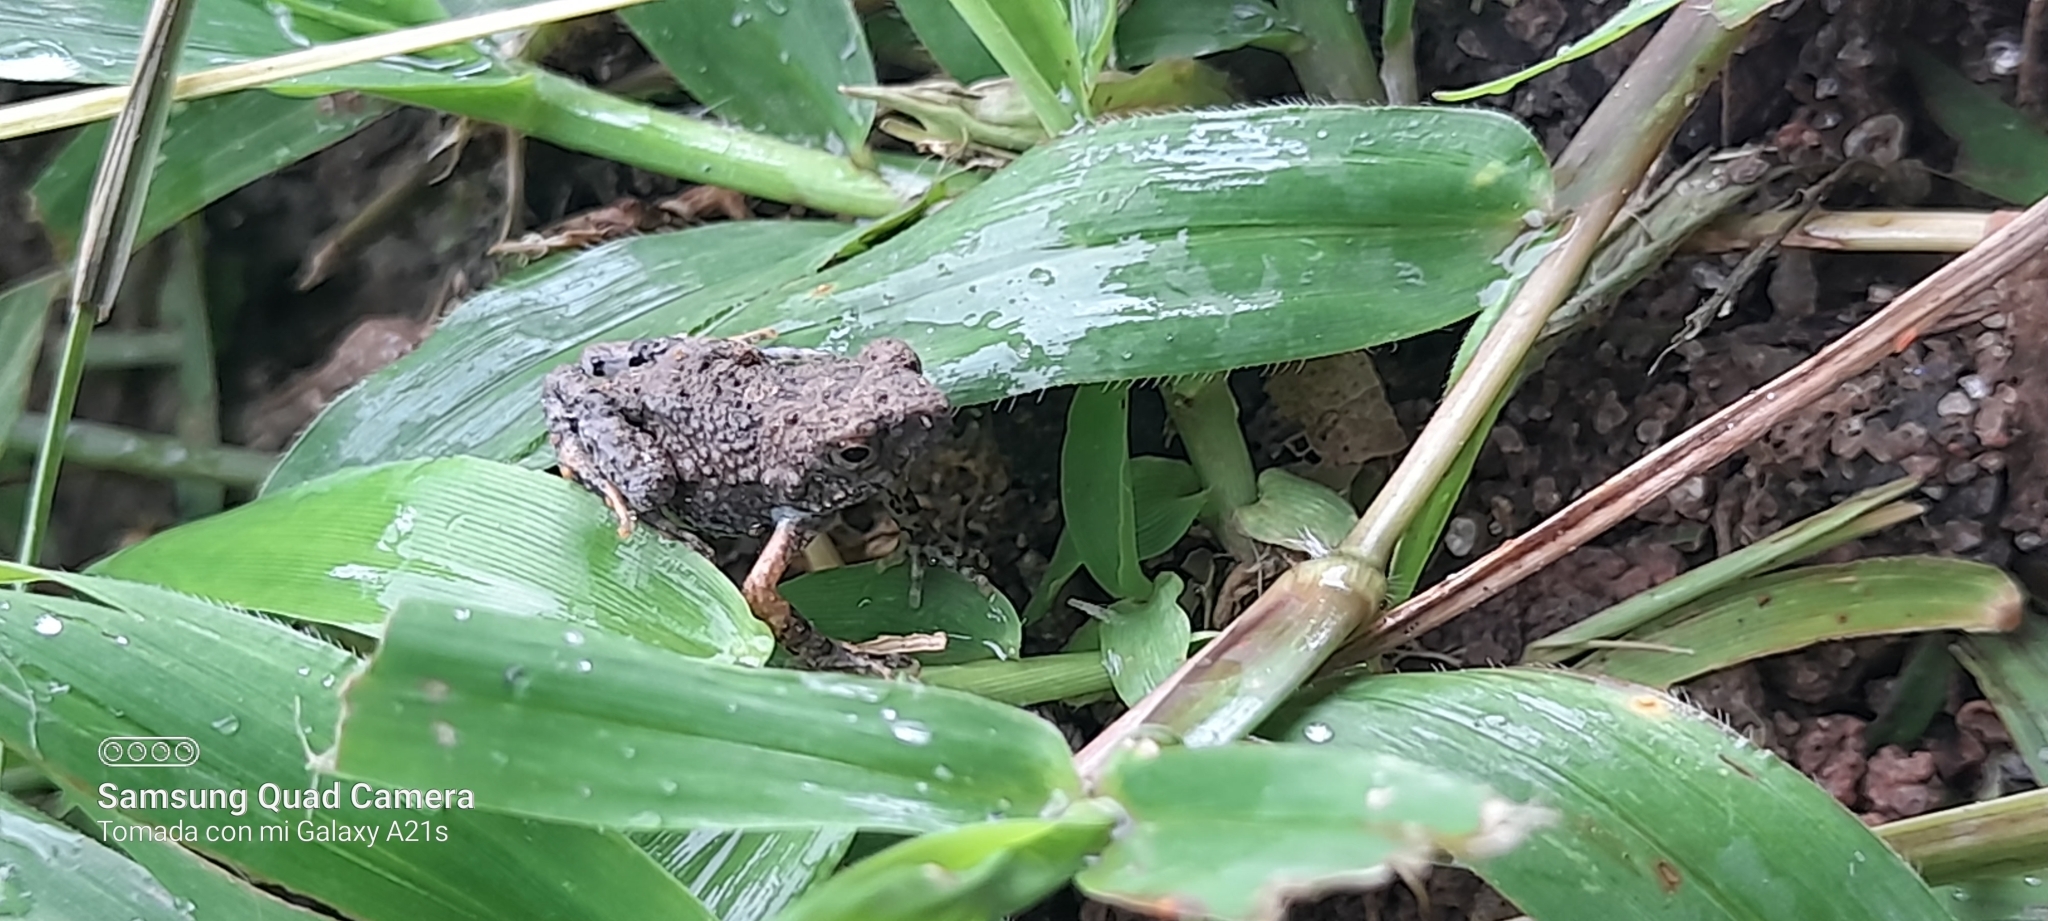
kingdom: Animalia
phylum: Chordata
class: Amphibia
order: Anura
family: Leptodactylidae
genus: Engystomops
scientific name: Engystomops pustulosus
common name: Tungara frog
